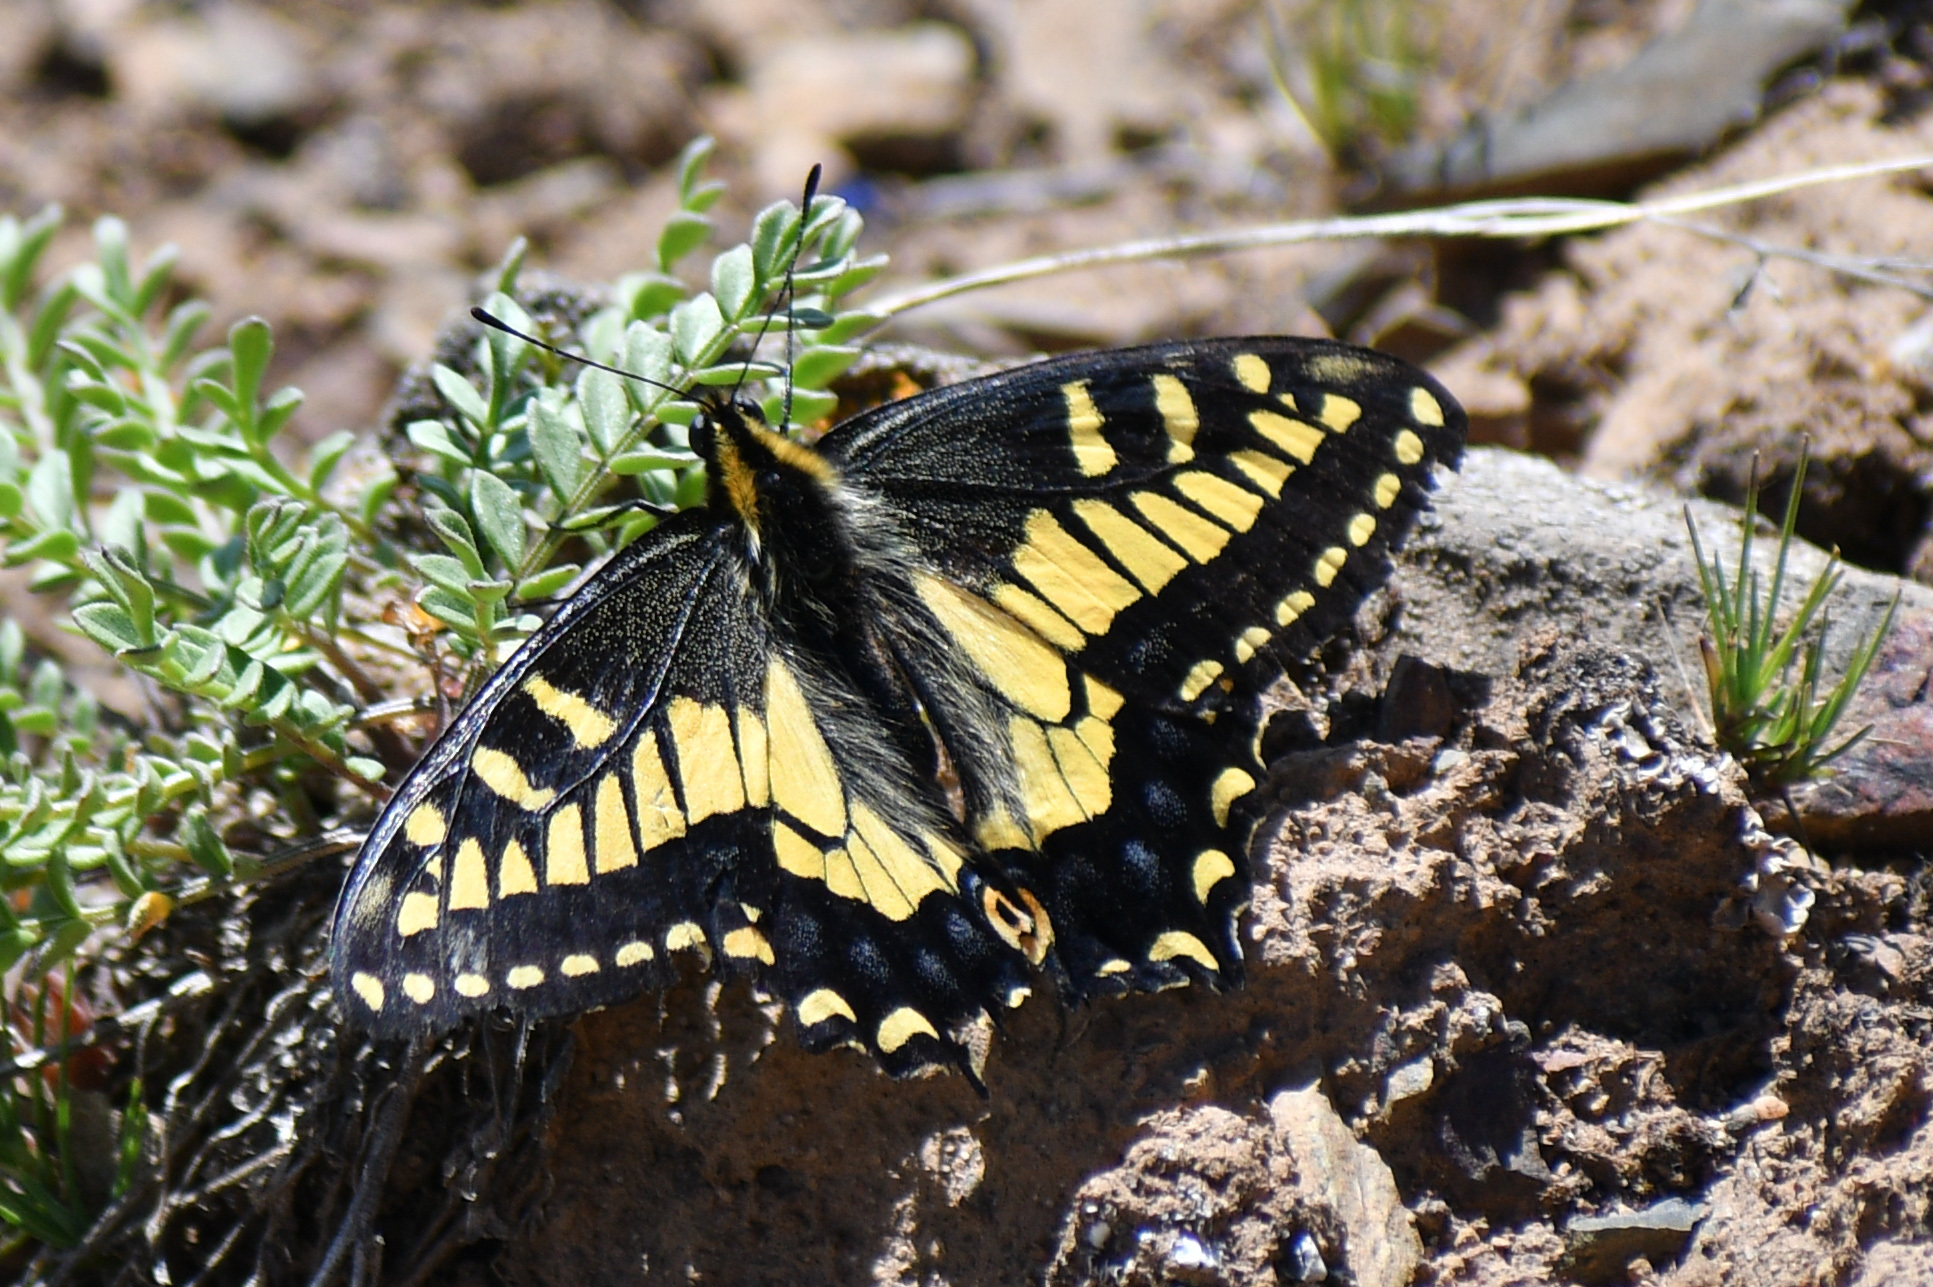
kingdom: Animalia
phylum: Arthropoda
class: Insecta
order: Lepidoptera
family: Papilionidae
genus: Papilio
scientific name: Papilio zelicaon
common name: Anise swallowtail
